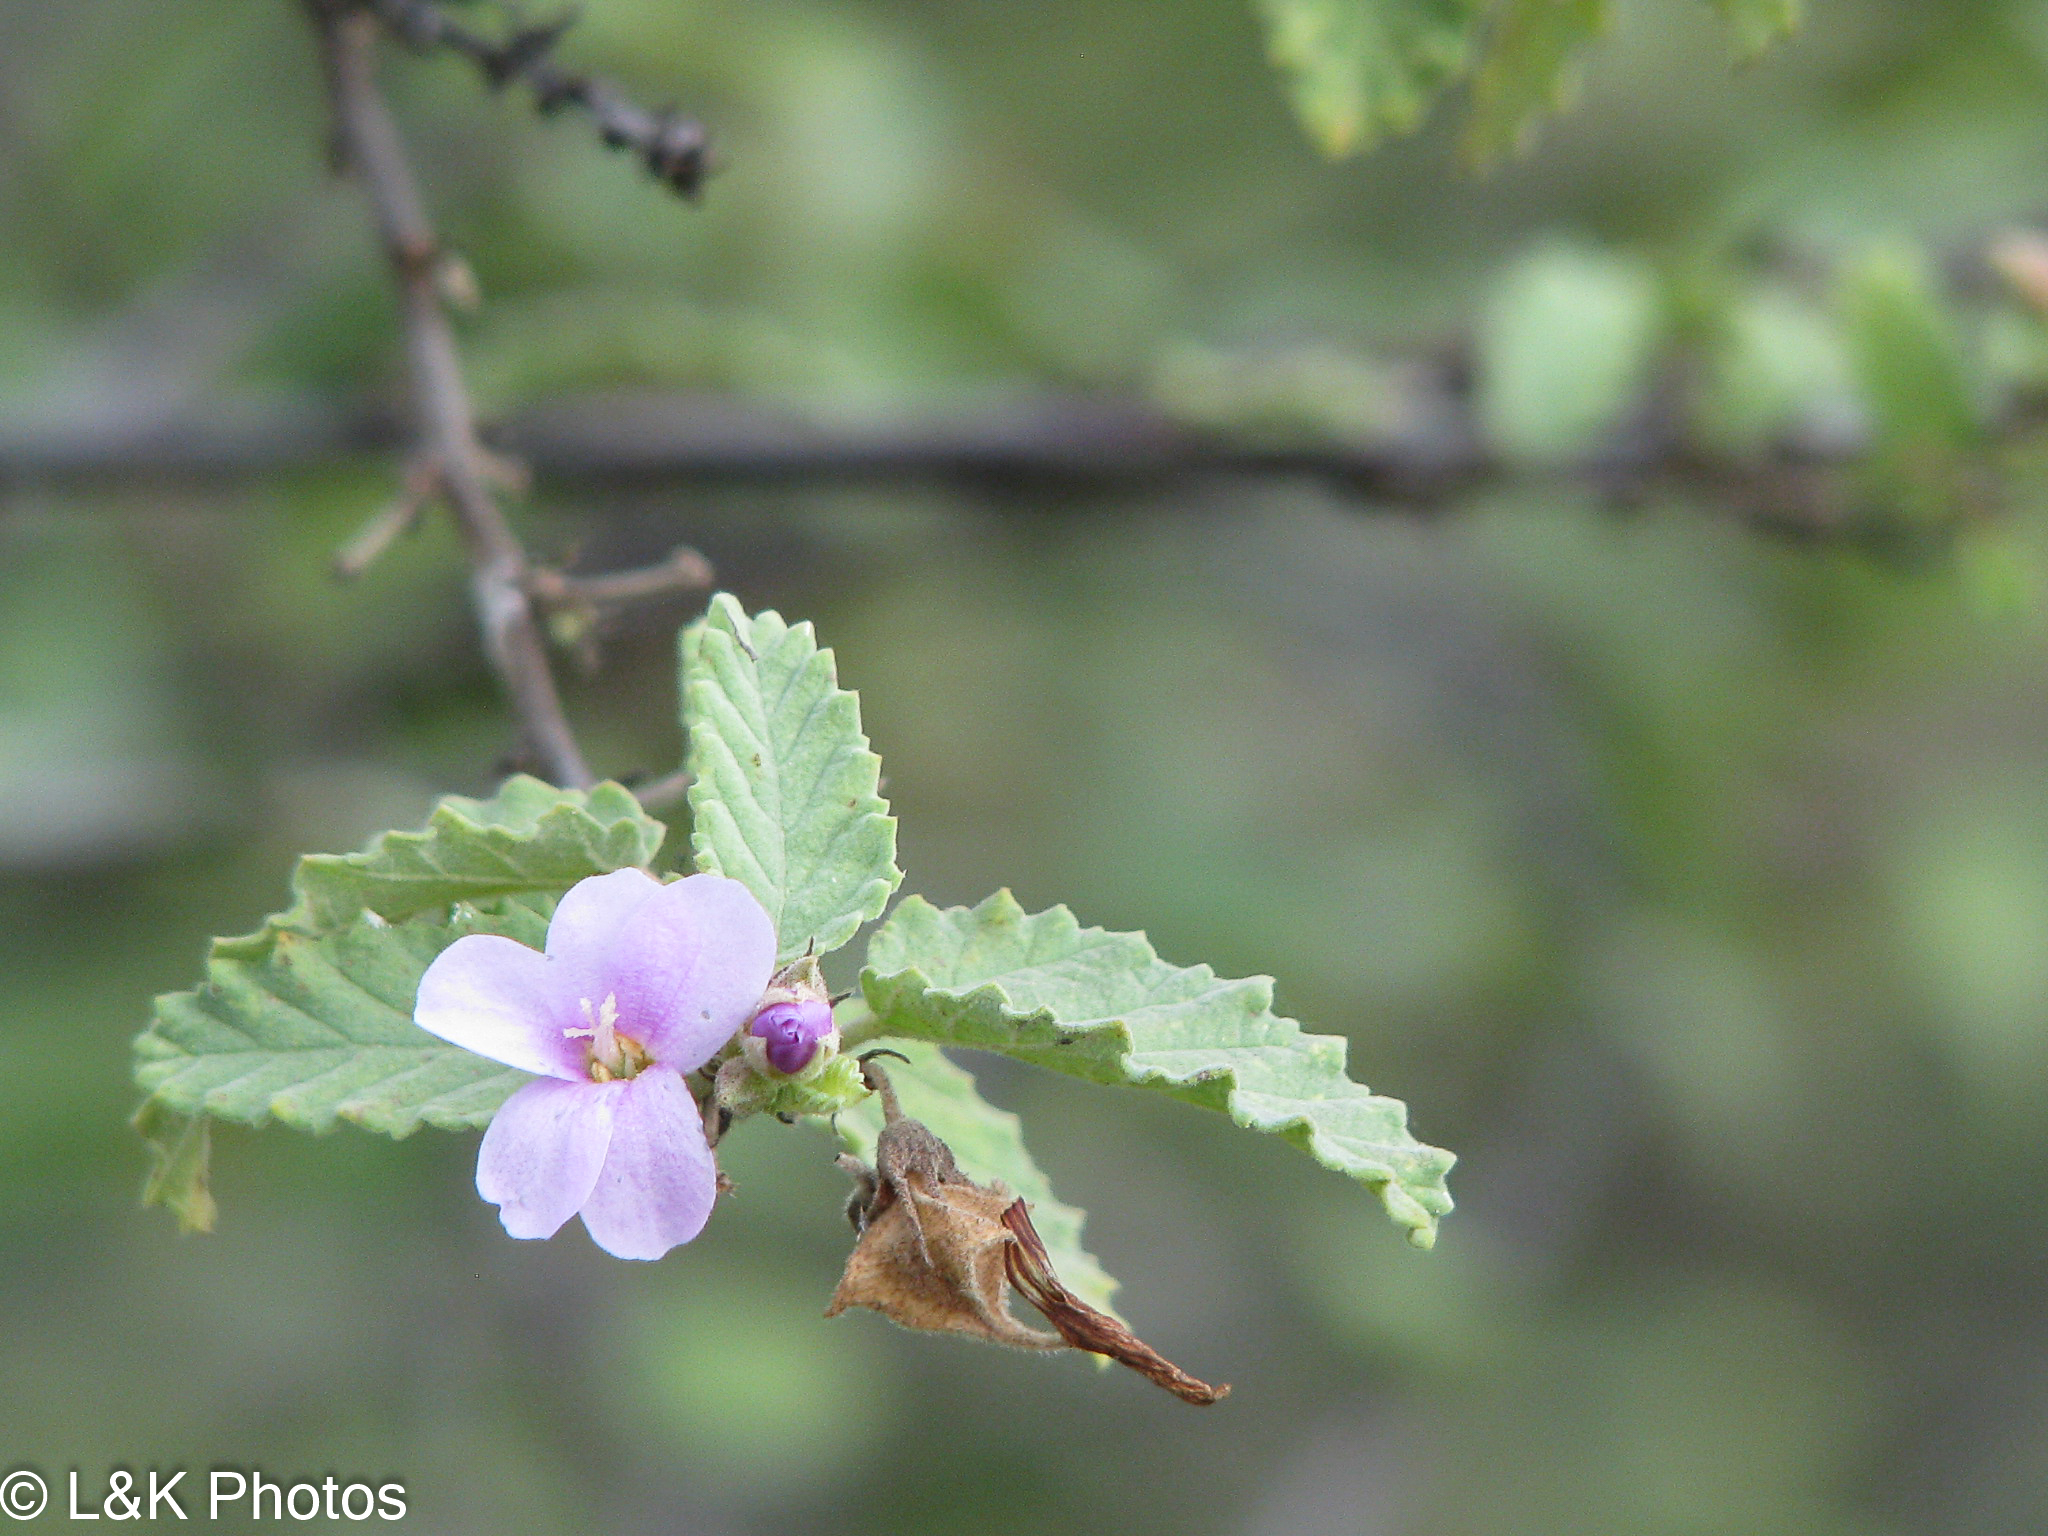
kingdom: Plantae
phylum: Tracheophyta
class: Magnoliopsida
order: Malvales
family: Malvaceae
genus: Melochia
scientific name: Melochia tomentosa
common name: Black torch
